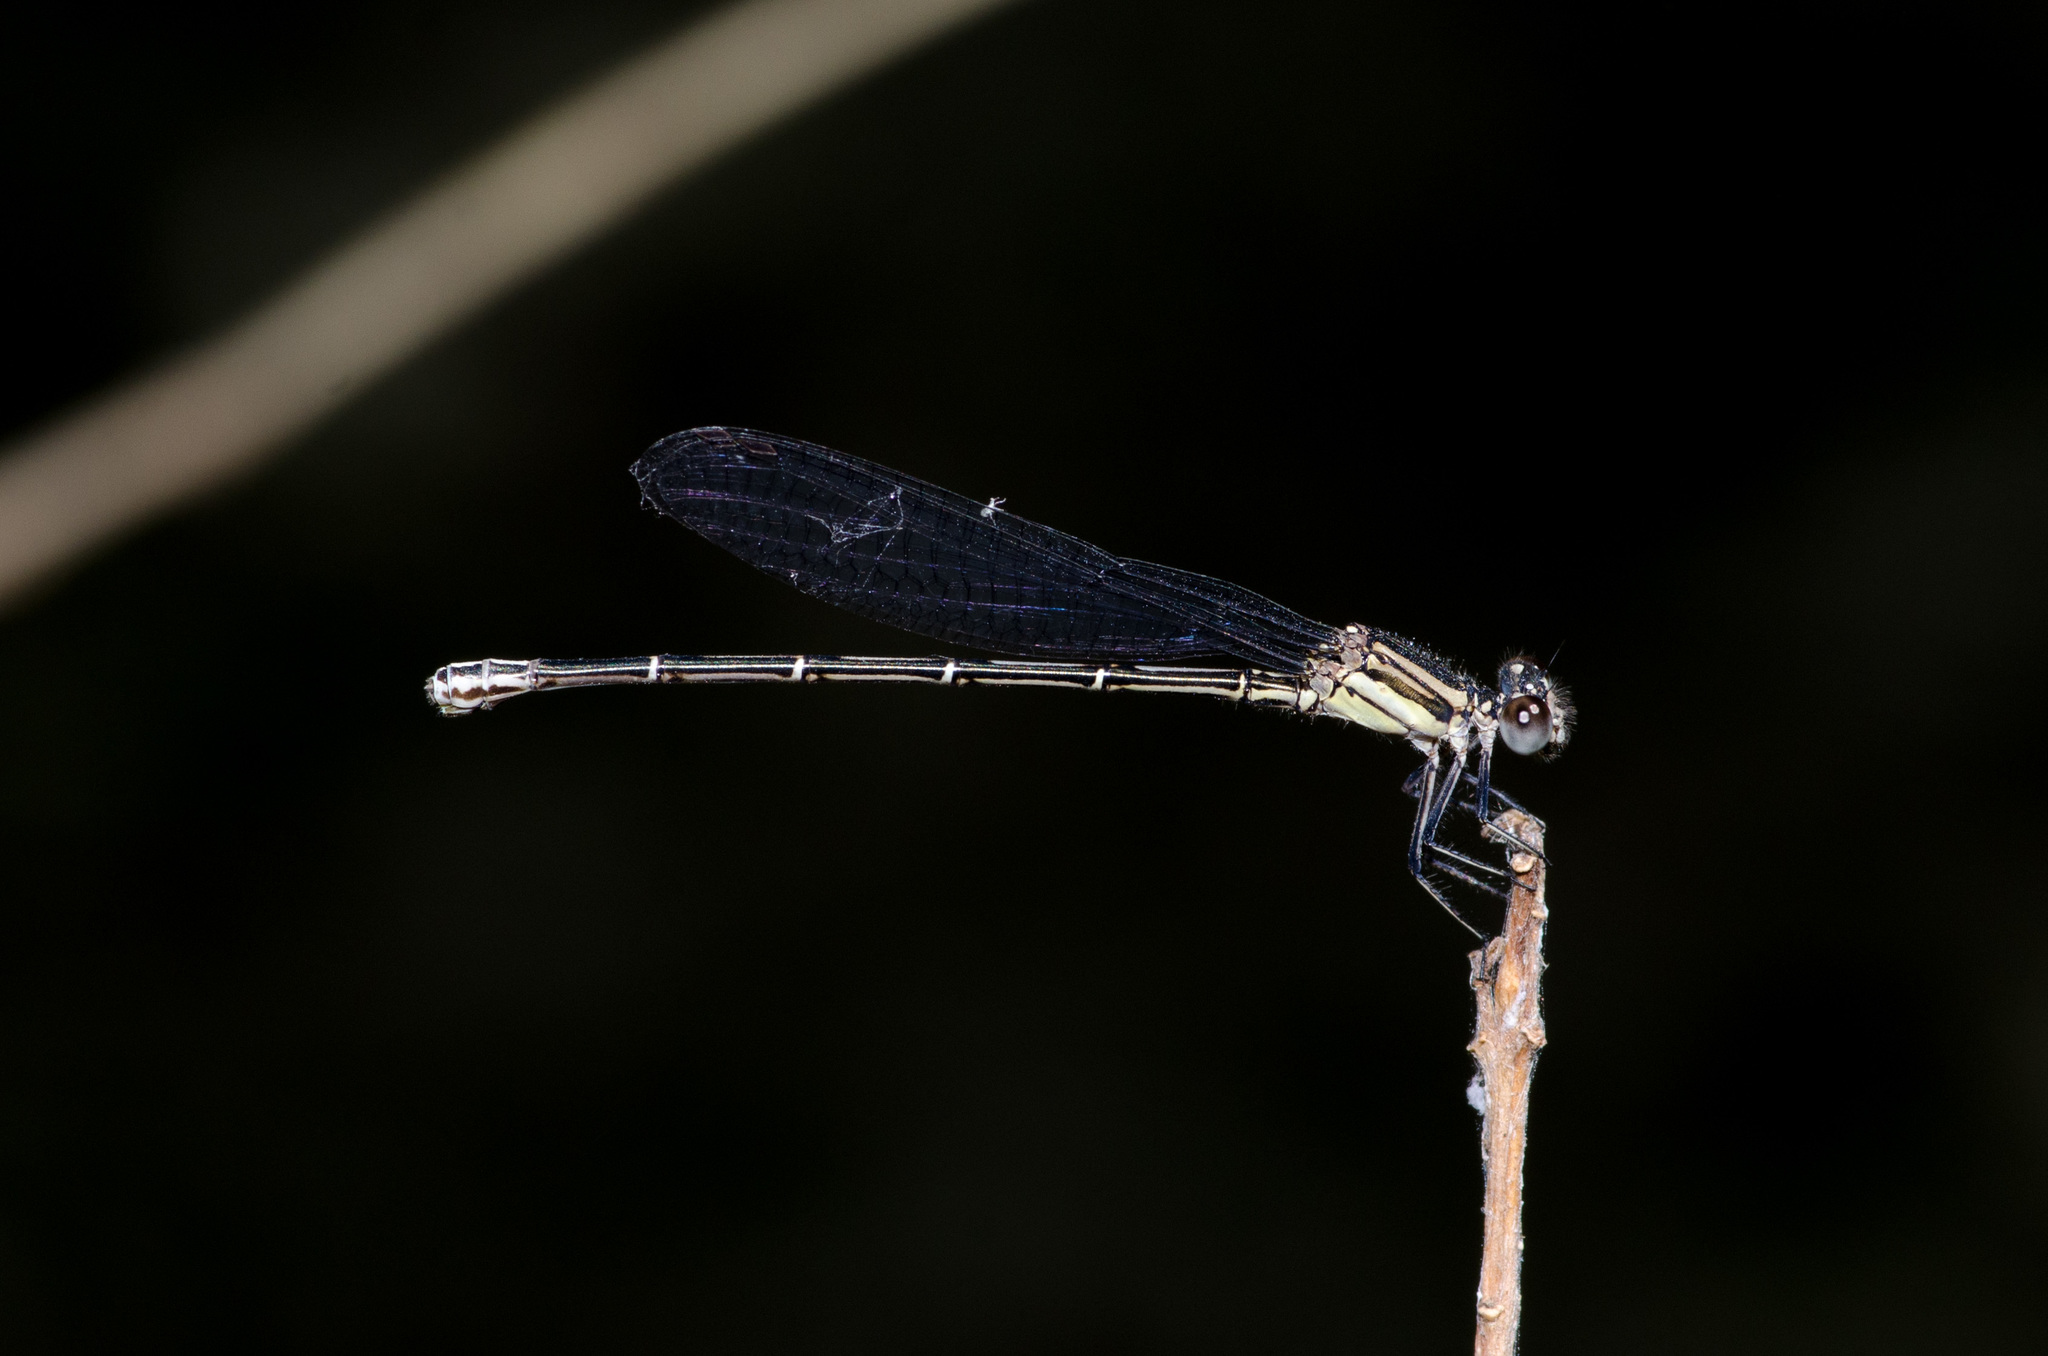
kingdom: Animalia
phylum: Arthropoda
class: Insecta
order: Odonata
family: Coenagrionidae
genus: Argia
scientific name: Argia translata
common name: Dusky dancer
